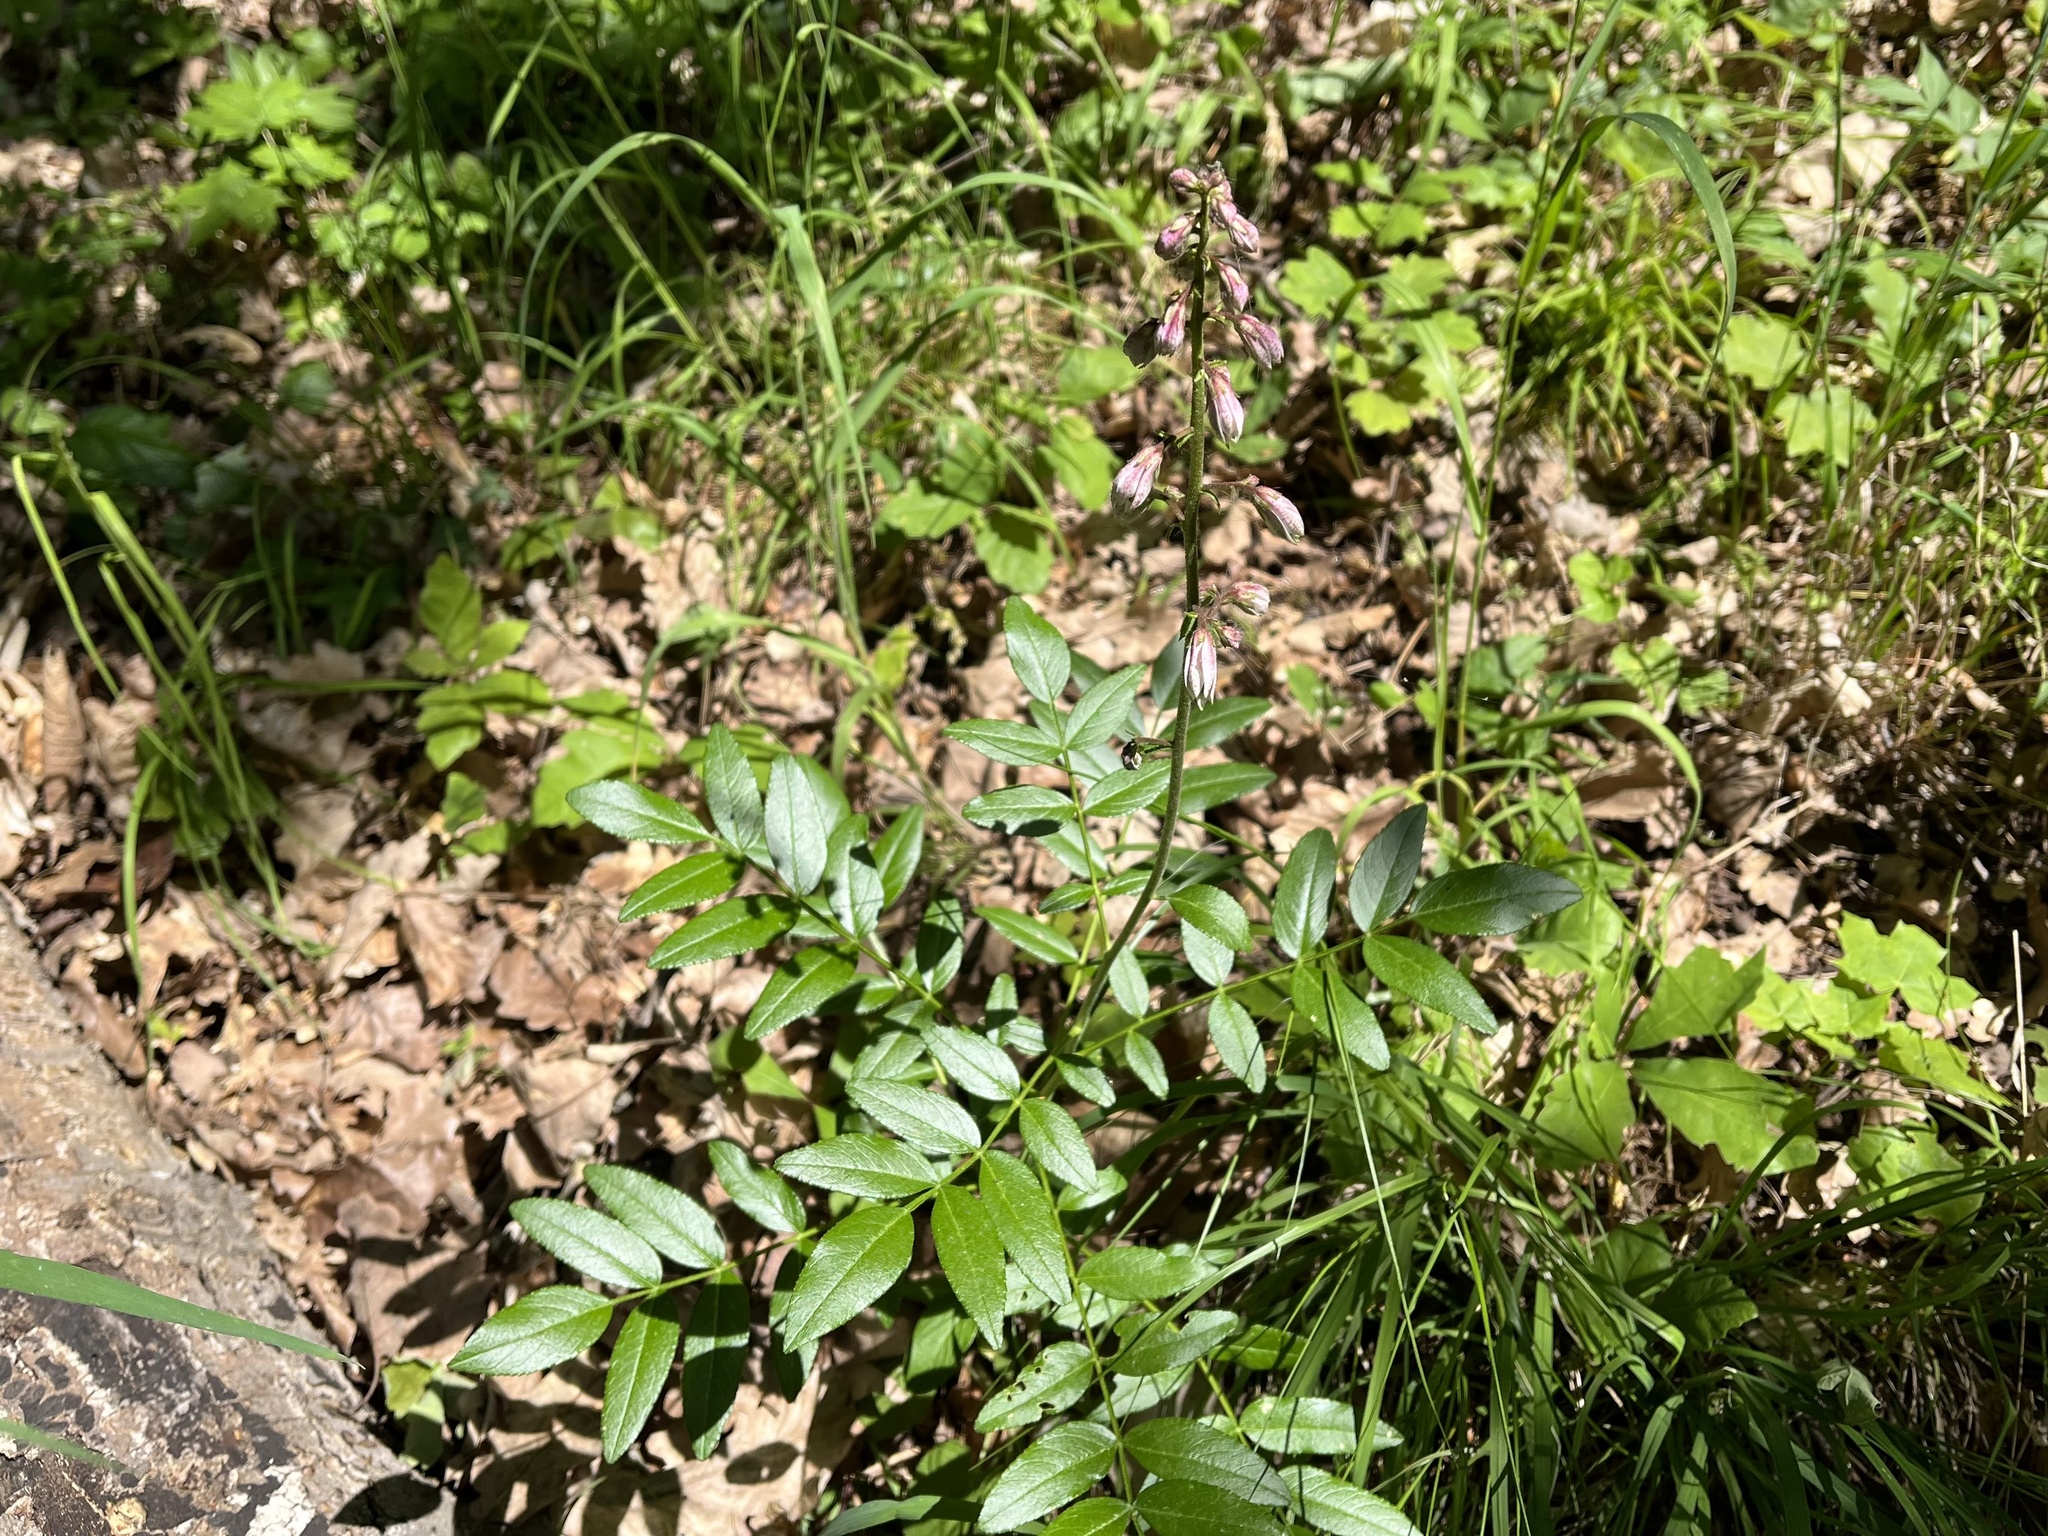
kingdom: Plantae
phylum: Tracheophyta
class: Magnoliopsida
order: Sapindales
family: Rutaceae
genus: Dictamnus
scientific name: Dictamnus albus
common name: Gasplant
